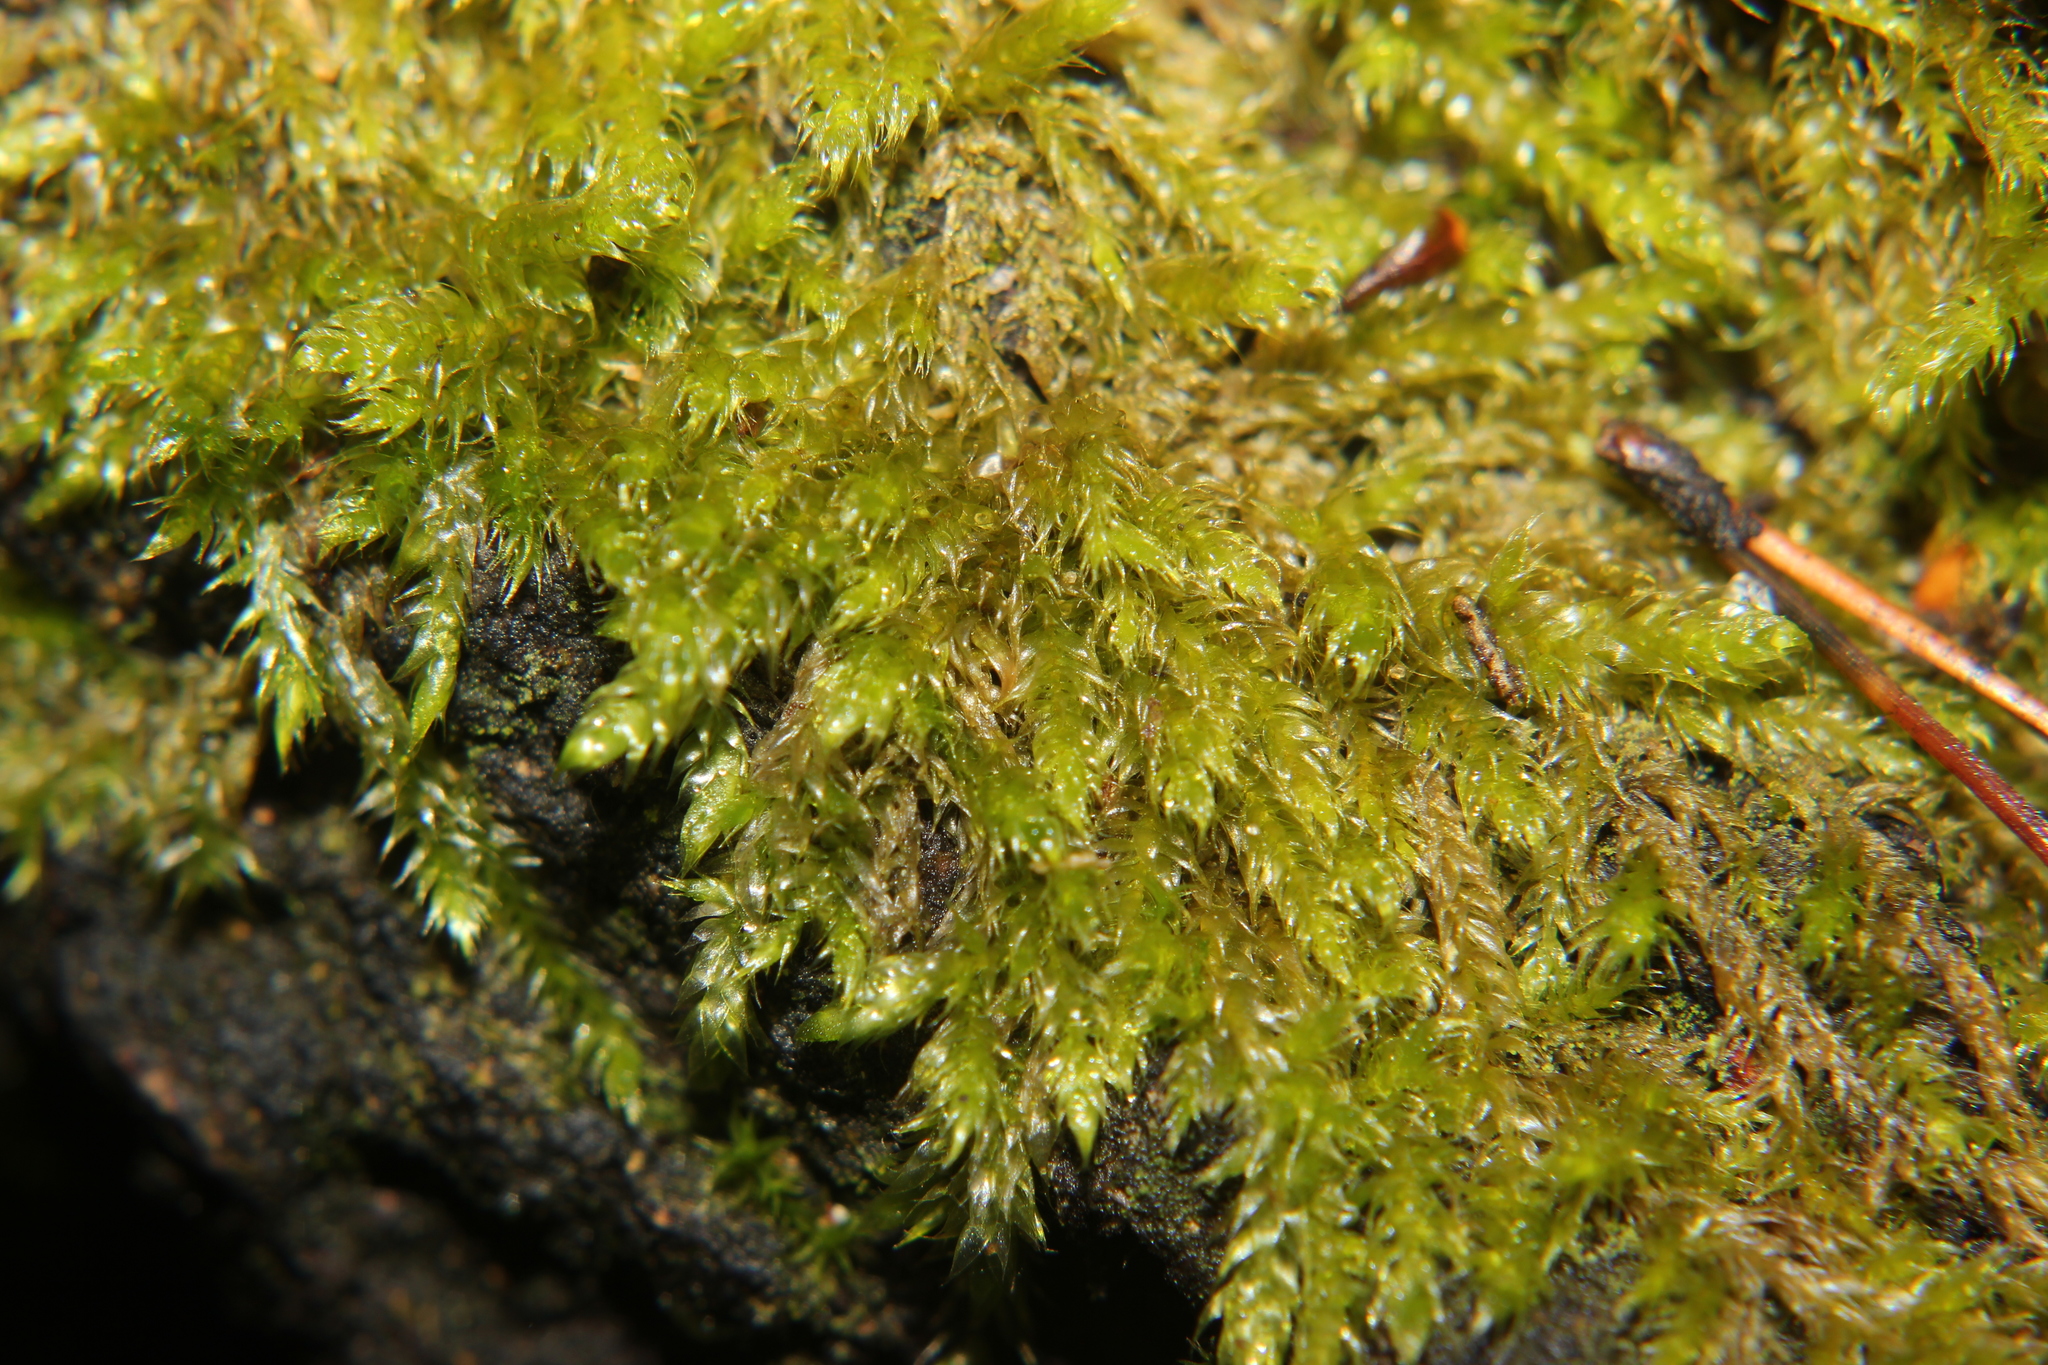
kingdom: Plantae
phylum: Bryophyta
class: Bryopsida
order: Hypnales
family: Hypnaceae
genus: Hypnum
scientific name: Hypnum cupressiforme
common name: Cypress-leaved plait-moss
